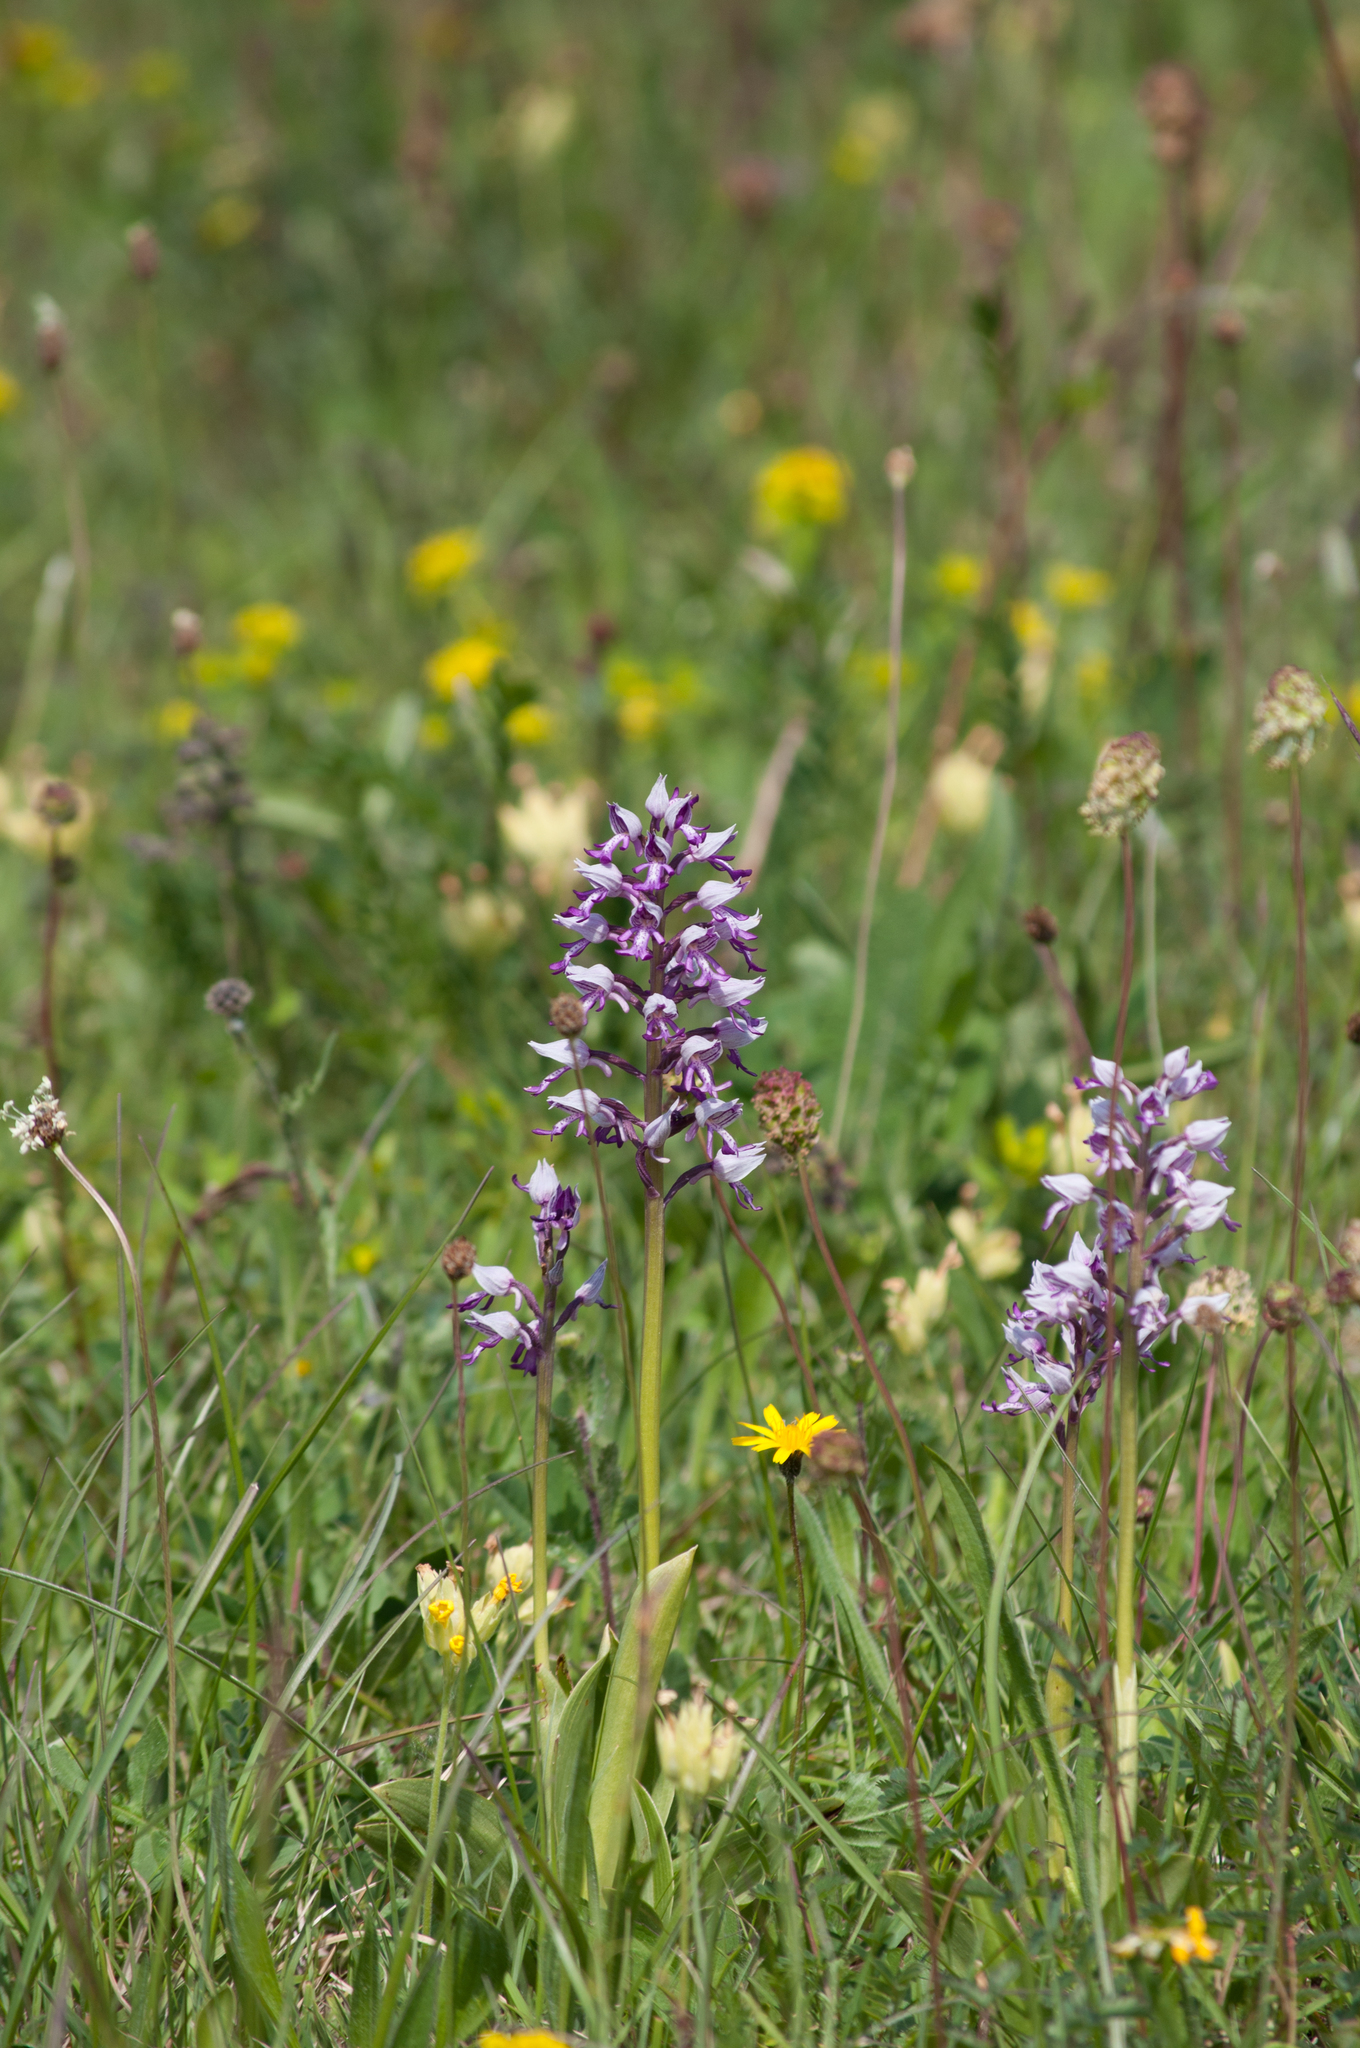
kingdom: Plantae
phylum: Tracheophyta
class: Liliopsida
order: Asparagales
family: Orchidaceae
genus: Orchis
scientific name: Orchis militaris
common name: Military orchid
